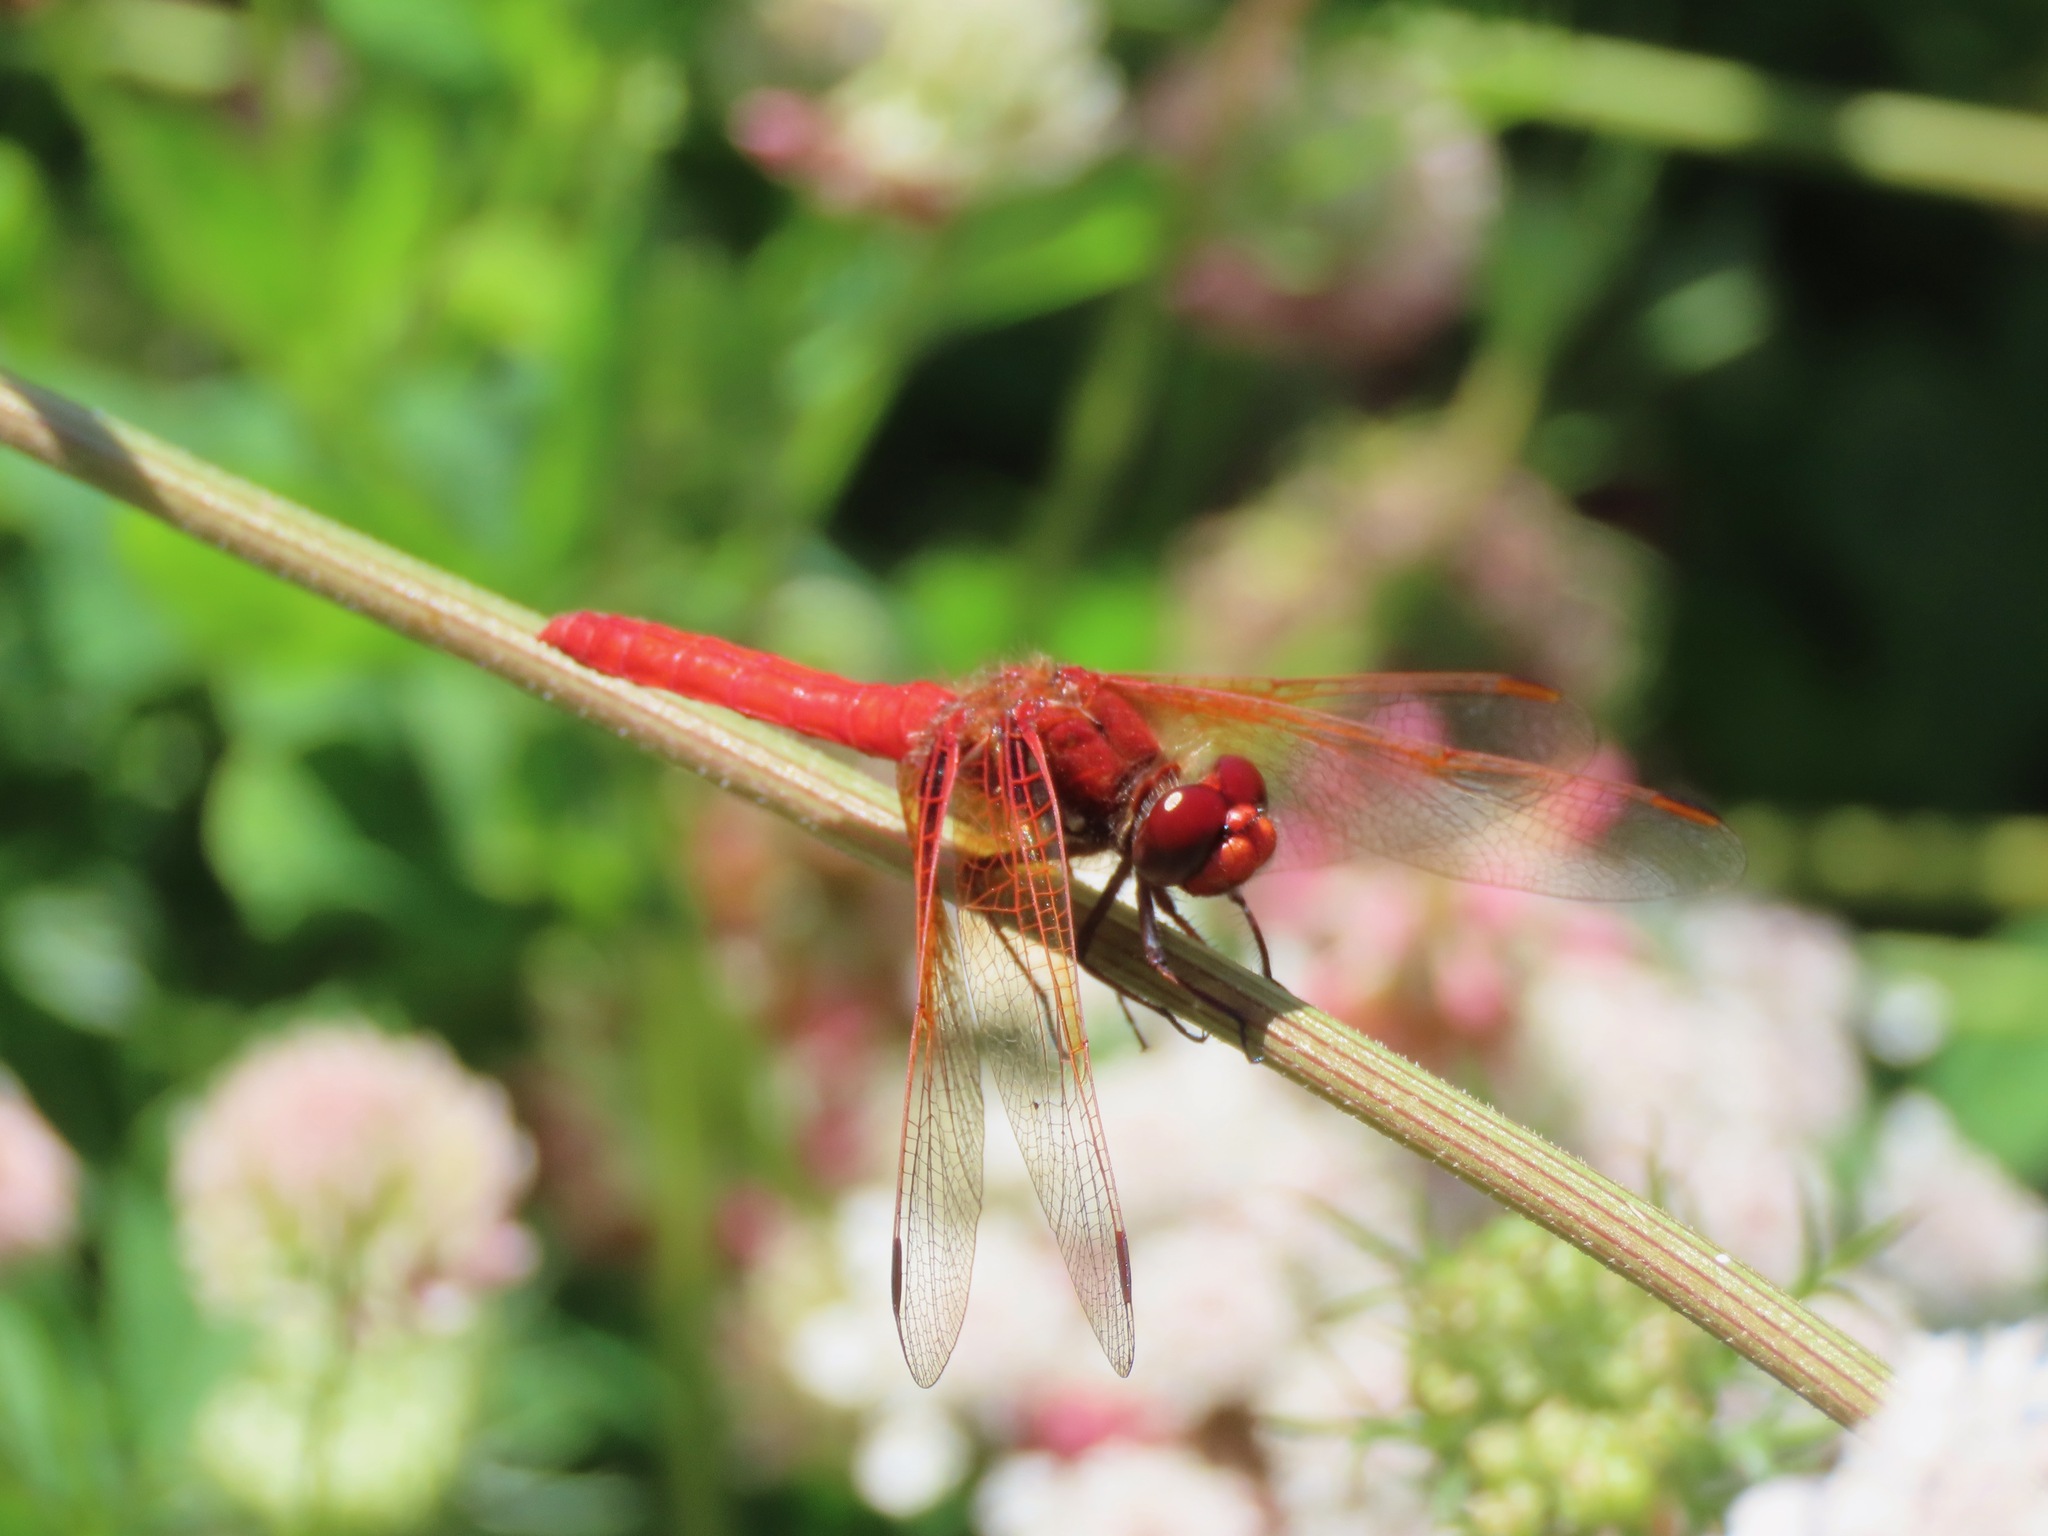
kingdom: Animalia
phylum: Arthropoda
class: Insecta
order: Odonata
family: Libellulidae
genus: Sympetrum
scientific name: Sympetrum illotum
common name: Cardinal meadowhawk
